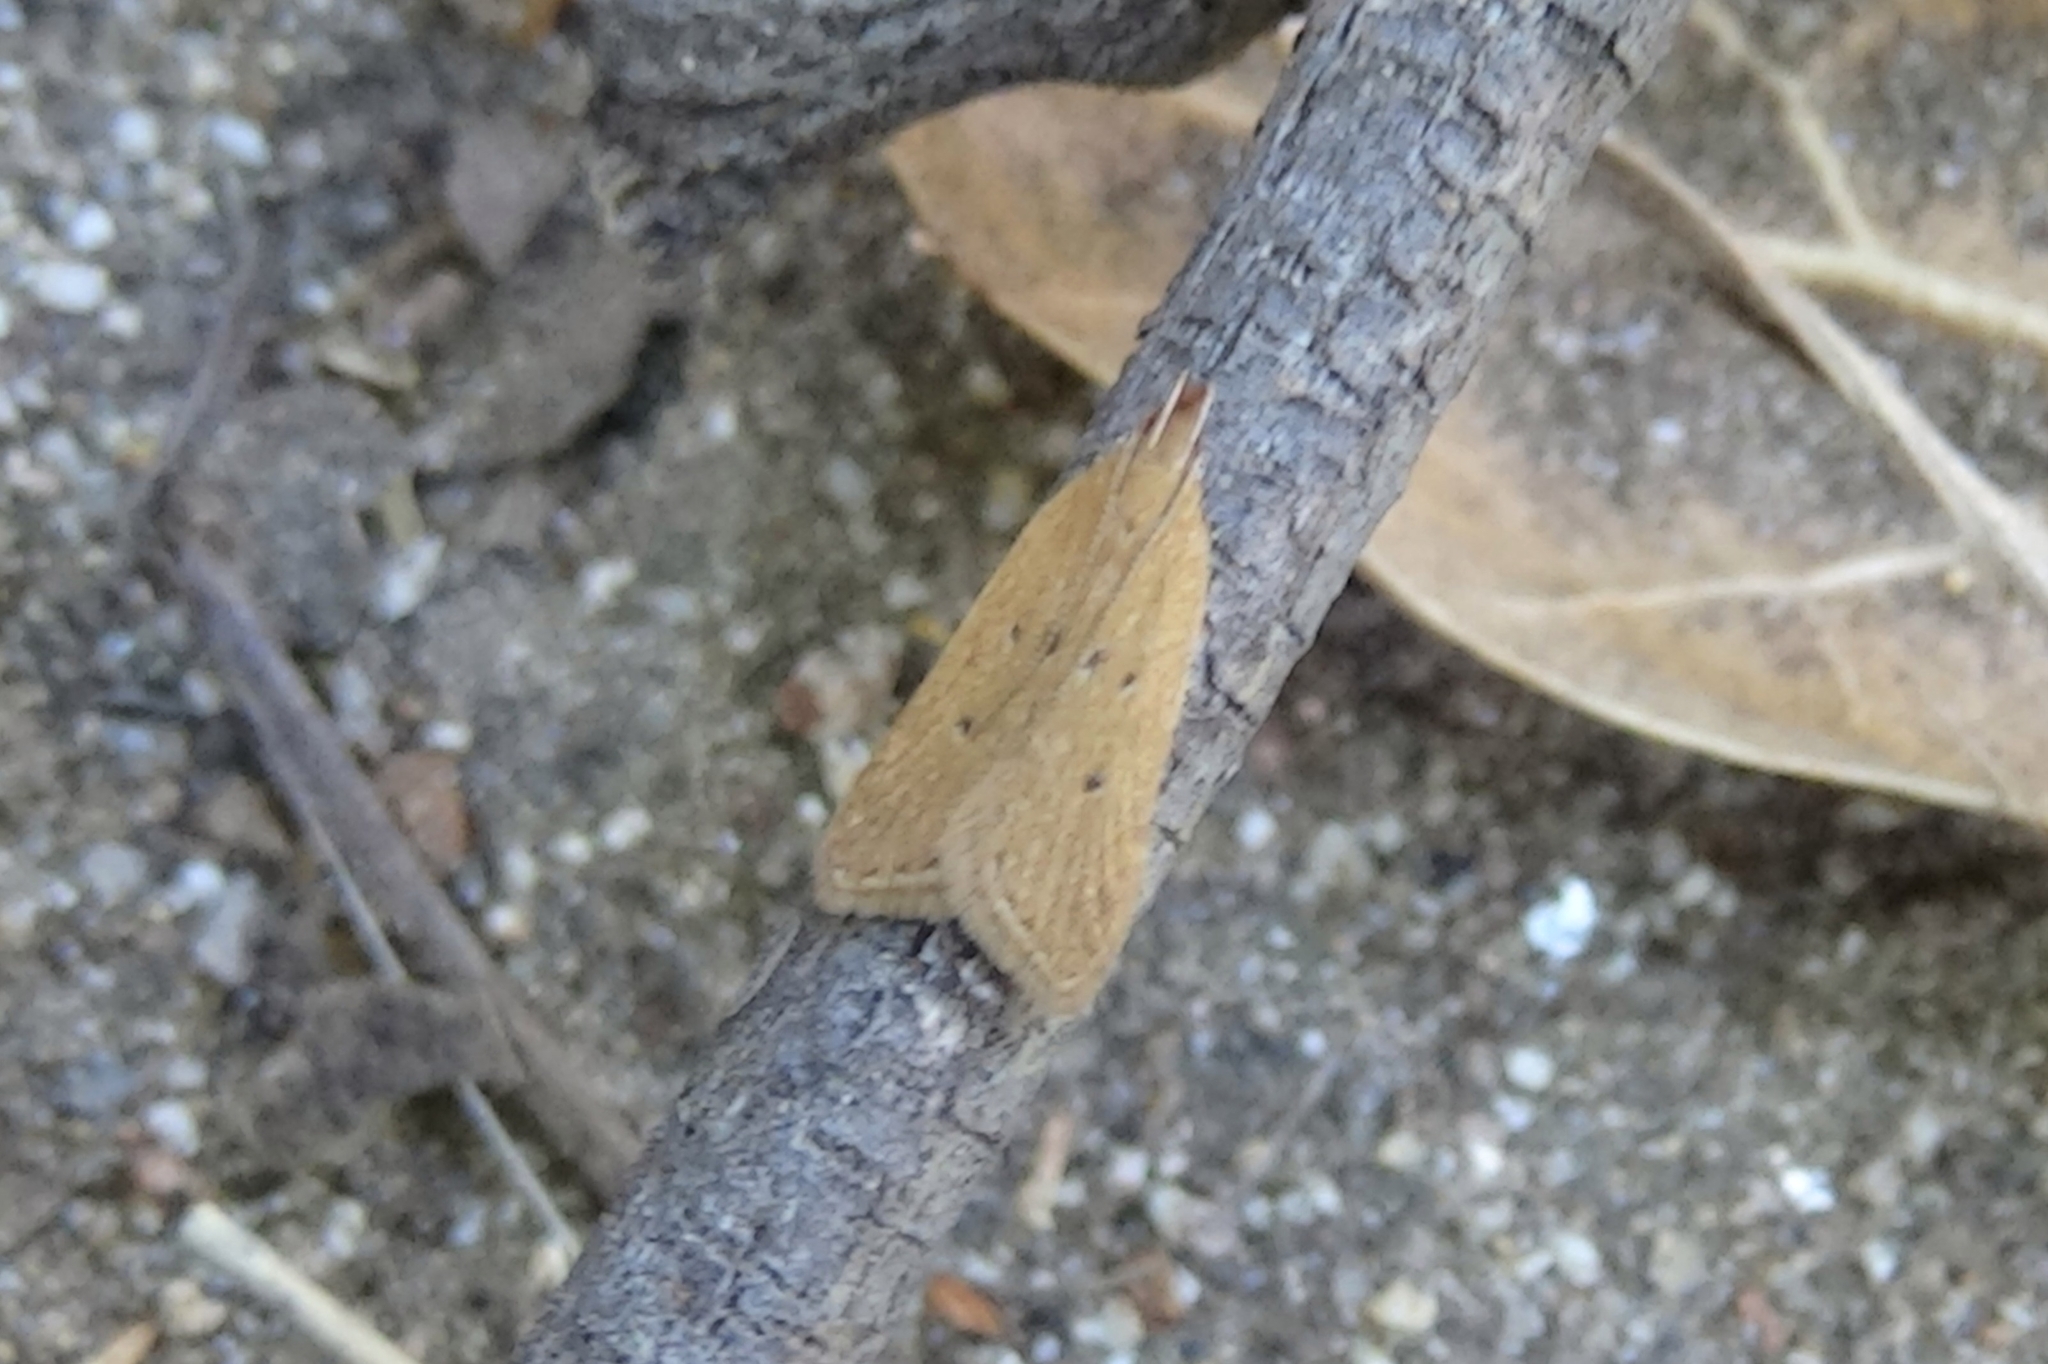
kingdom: Animalia
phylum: Arthropoda
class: Insecta
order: Lepidoptera
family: Gelechiidae
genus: Helcystogramma
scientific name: Helcystogramma badia
